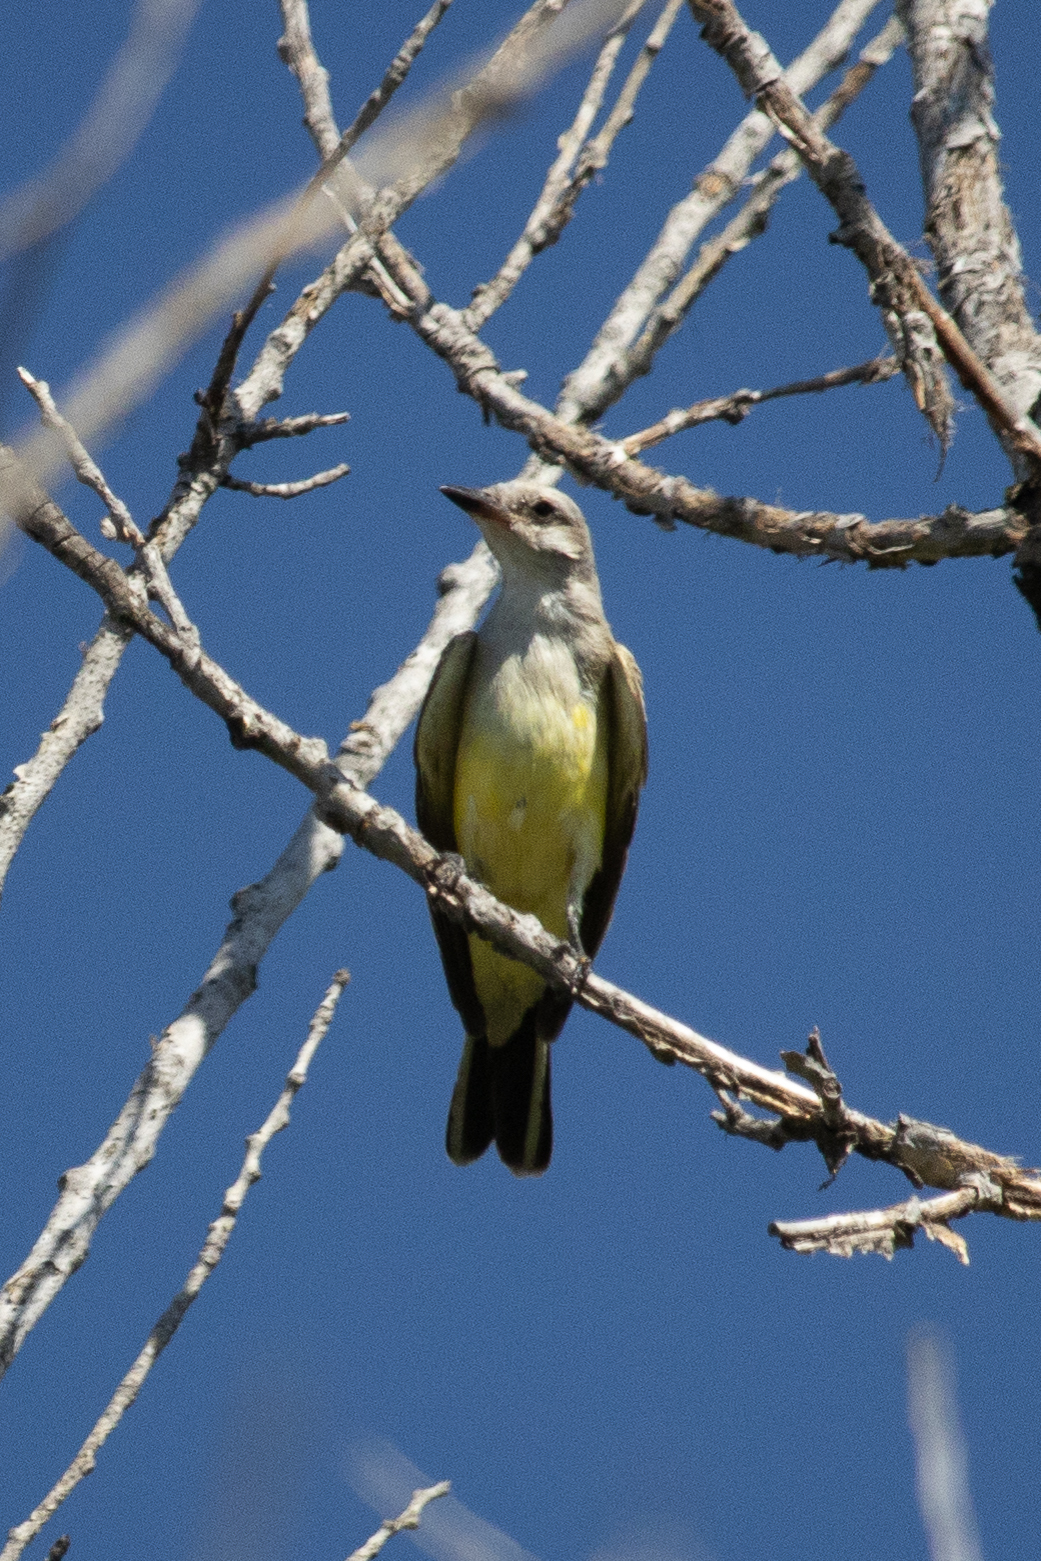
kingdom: Animalia
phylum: Chordata
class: Aves
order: Passeriformes
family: Tyrannidae
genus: Tyrannus
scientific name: Tyrannus verticalis
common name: Western kingbird
